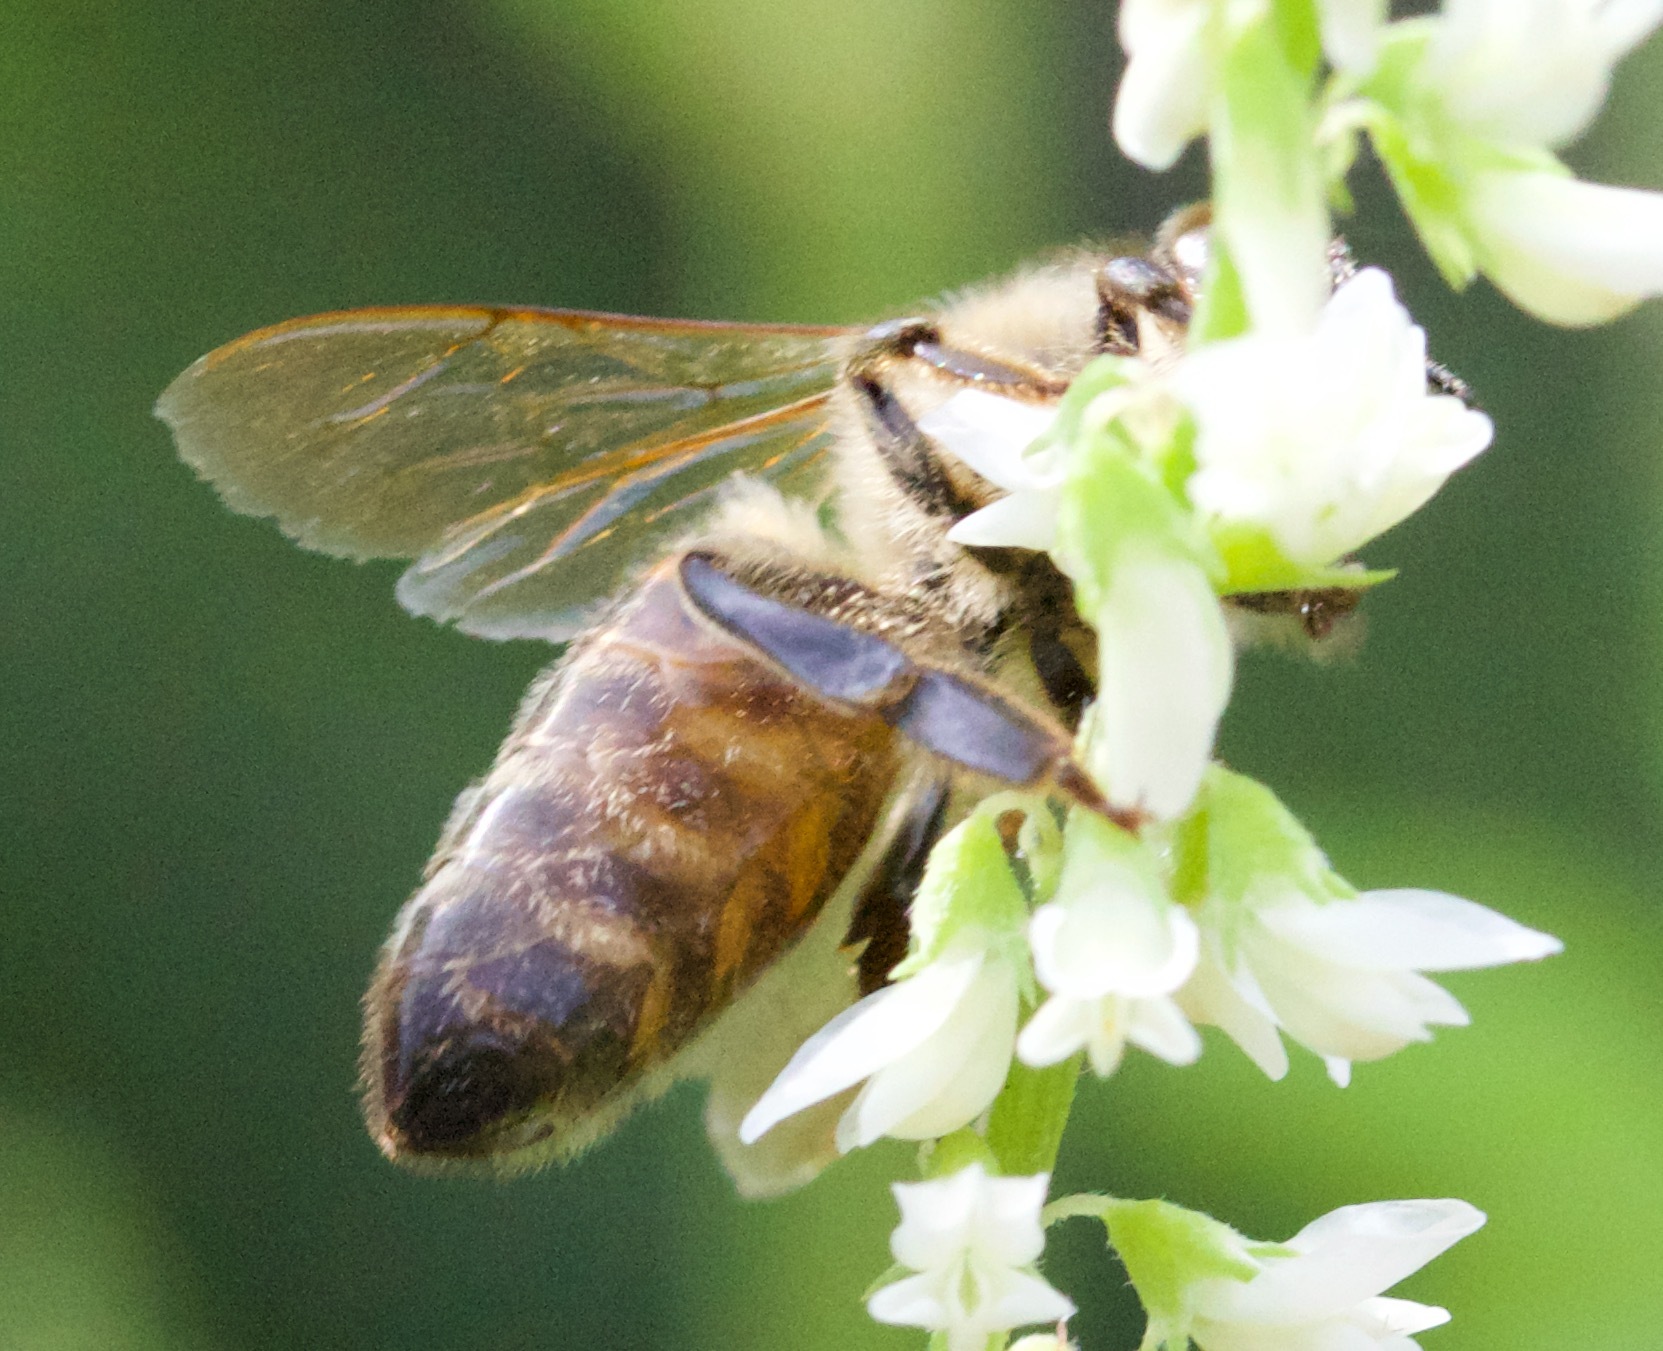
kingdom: Animalia
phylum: Arthropoda
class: Insecta
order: Hymenoptera
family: Apidae
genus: Apis
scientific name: Apis mellifera
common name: Honey bee
